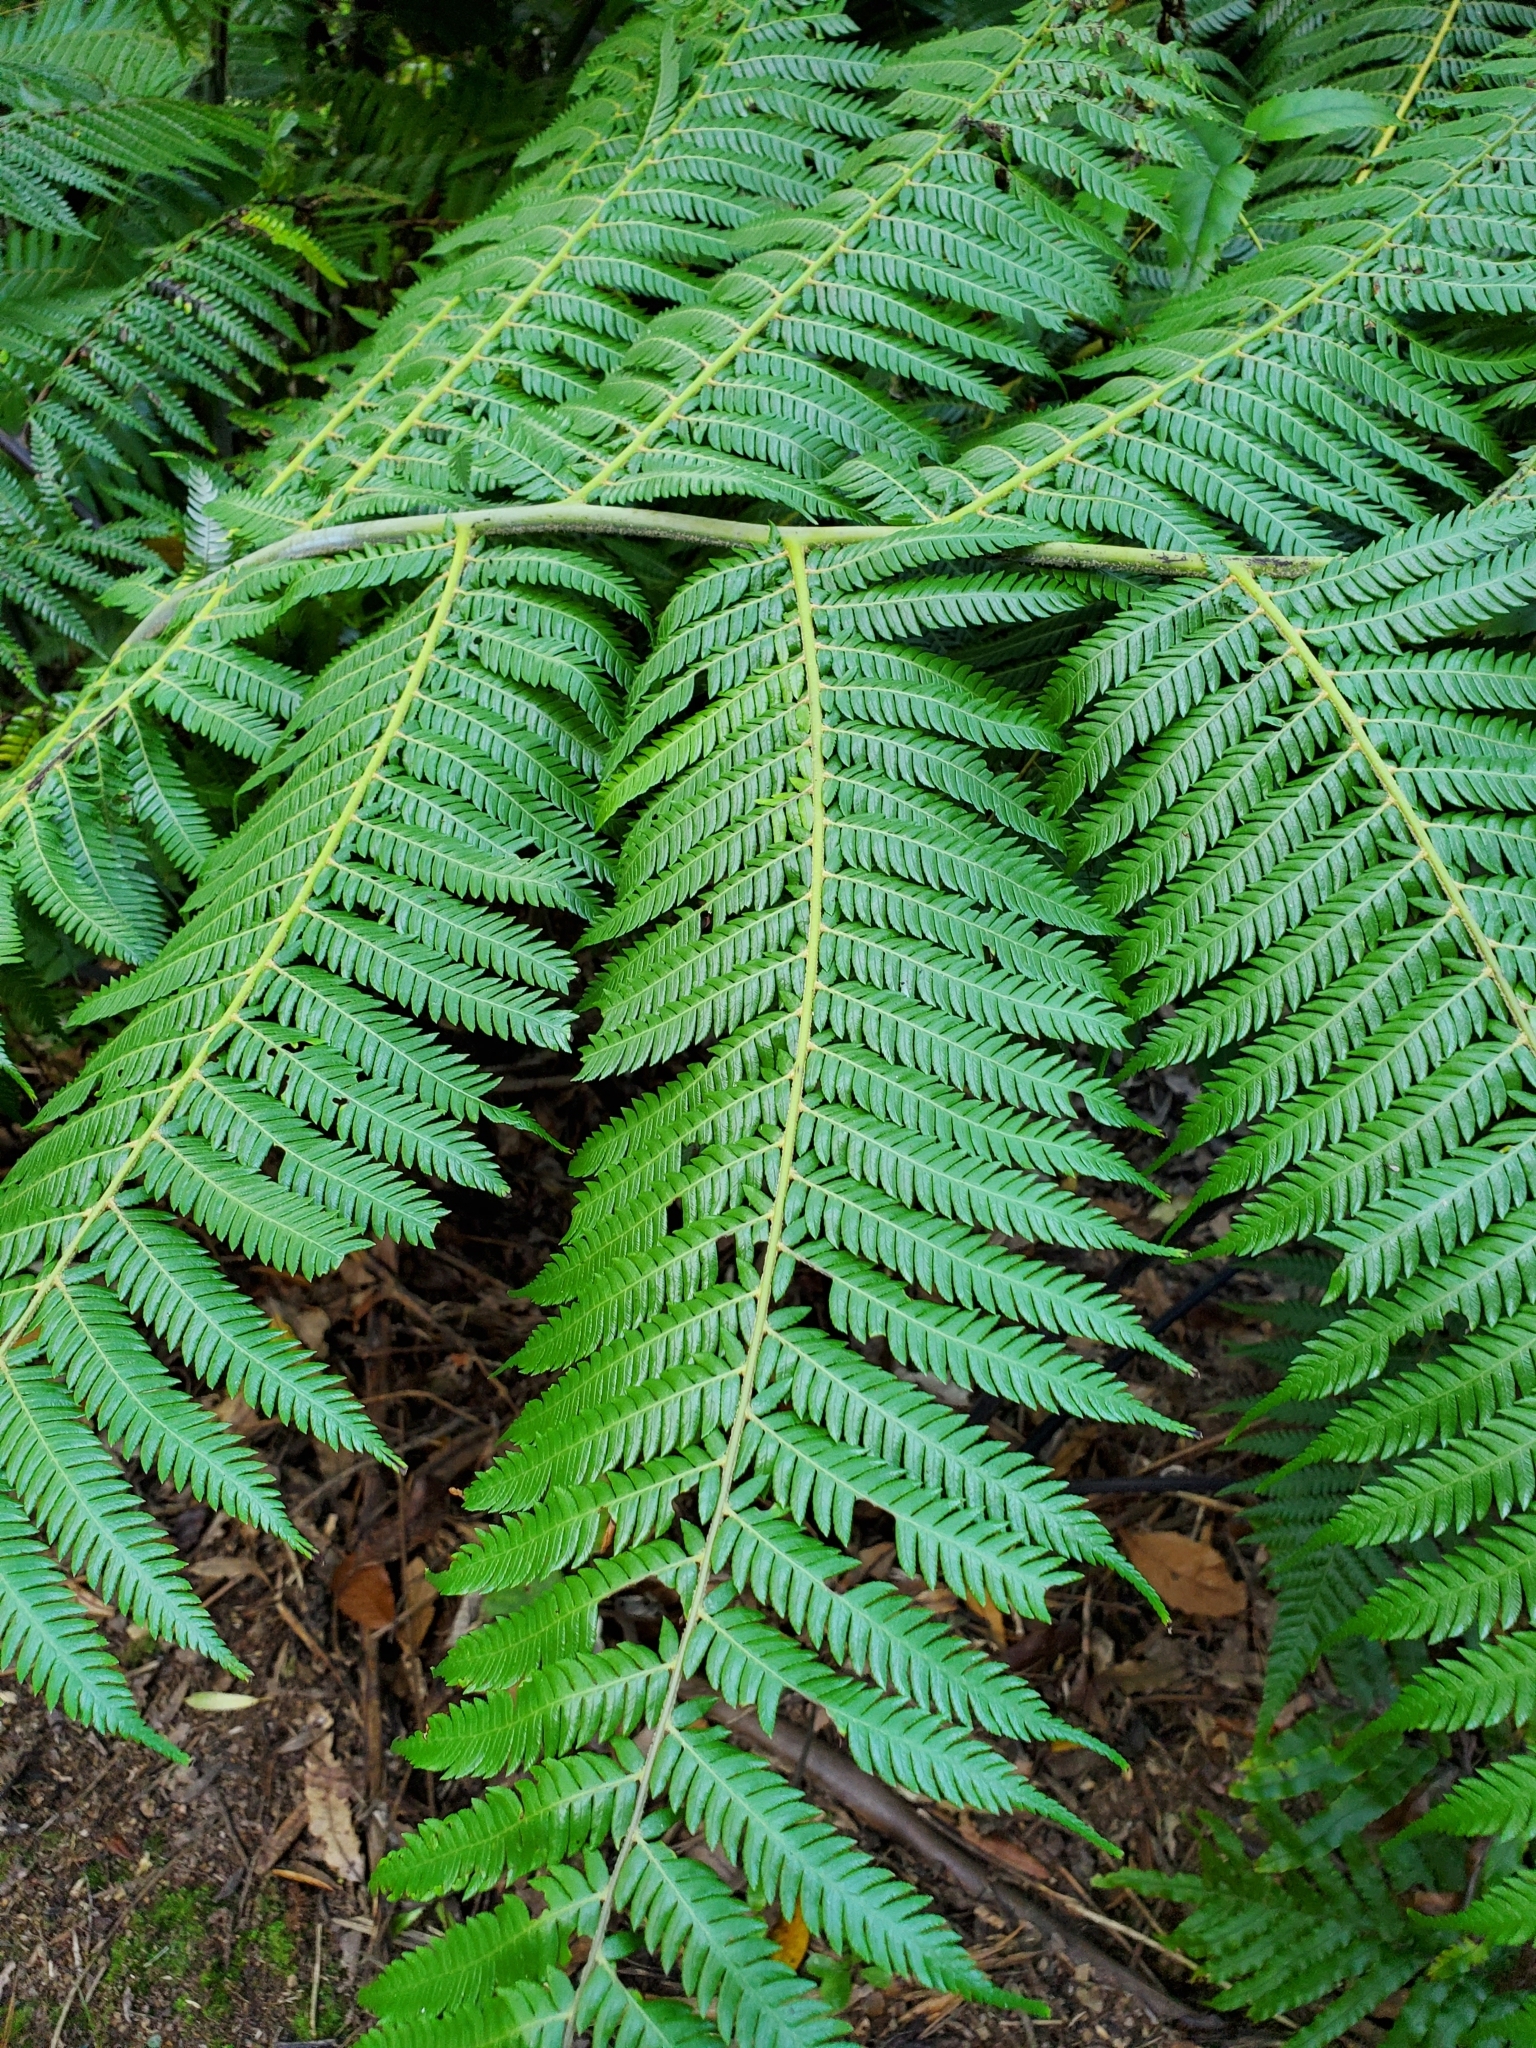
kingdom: Plantae
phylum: Tracheophyta
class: Polypodiopsida
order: Cyatheales
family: Cyatheaceae
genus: Alsophila
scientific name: Alsophila dealbata
